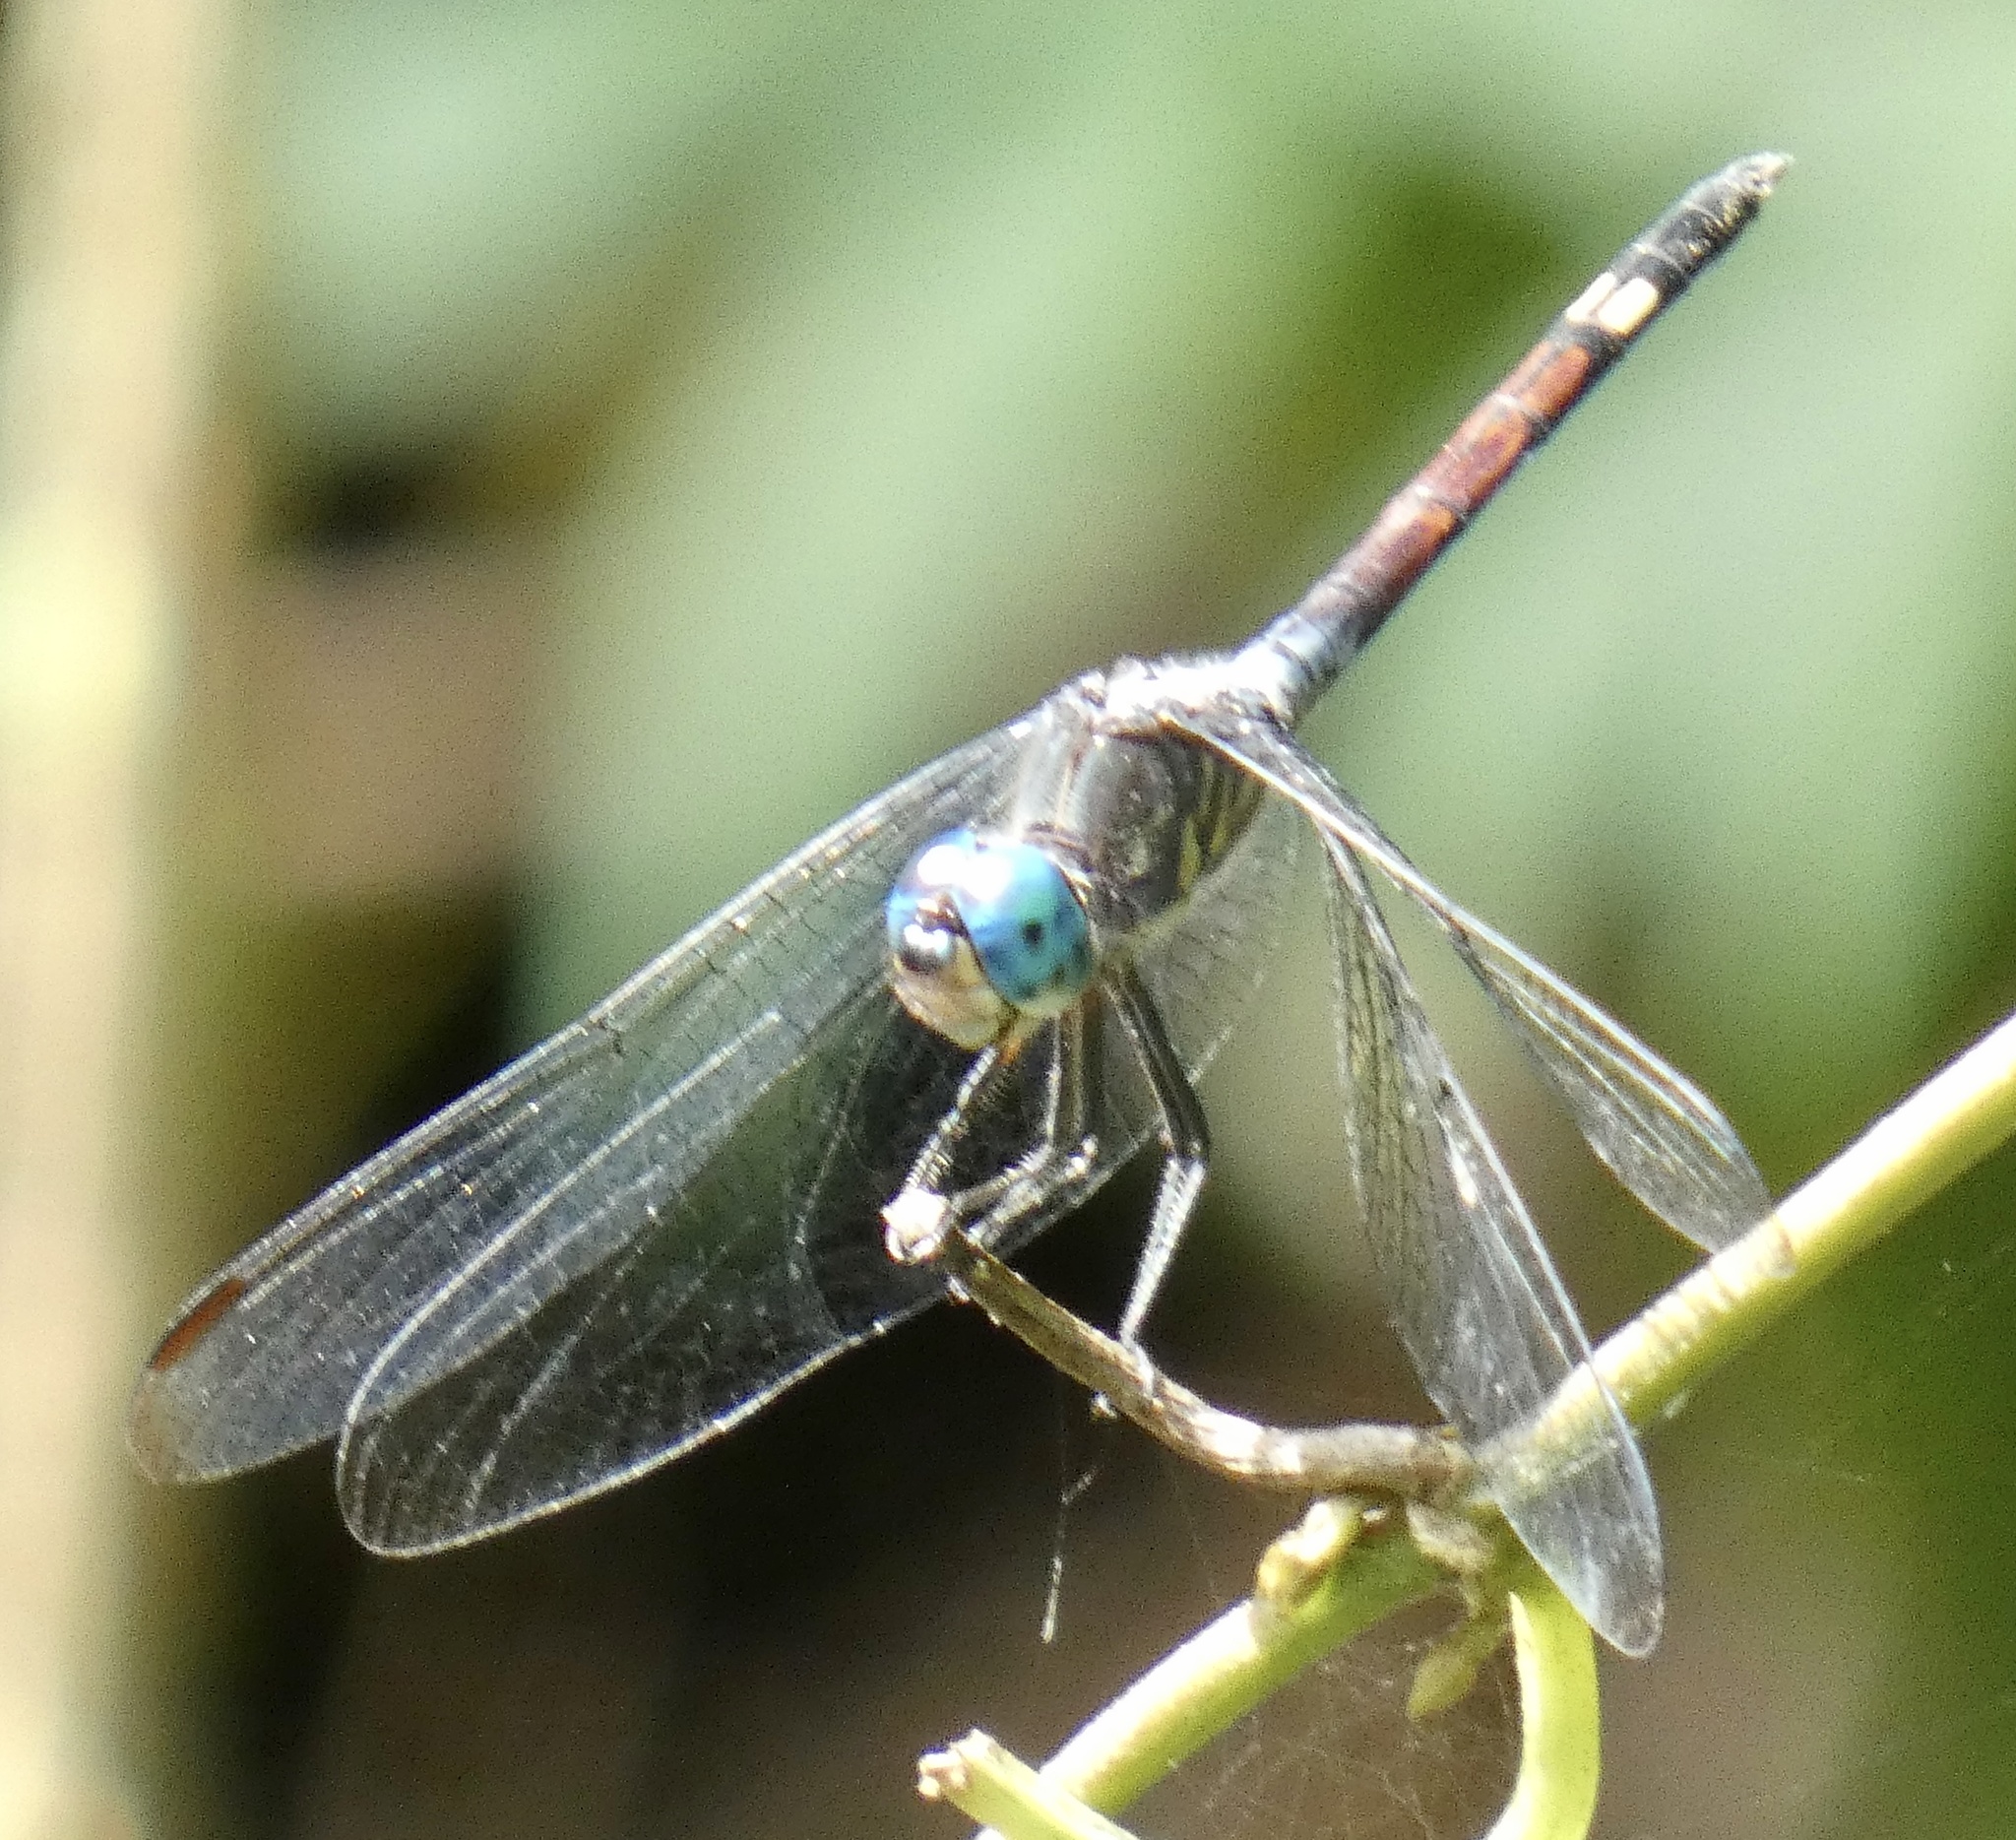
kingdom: Animalia
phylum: Arthropoda
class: Insecta
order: Odonata
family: Libellulidae
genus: Micrathyria
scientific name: Micrathyria atra
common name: Black dasher
